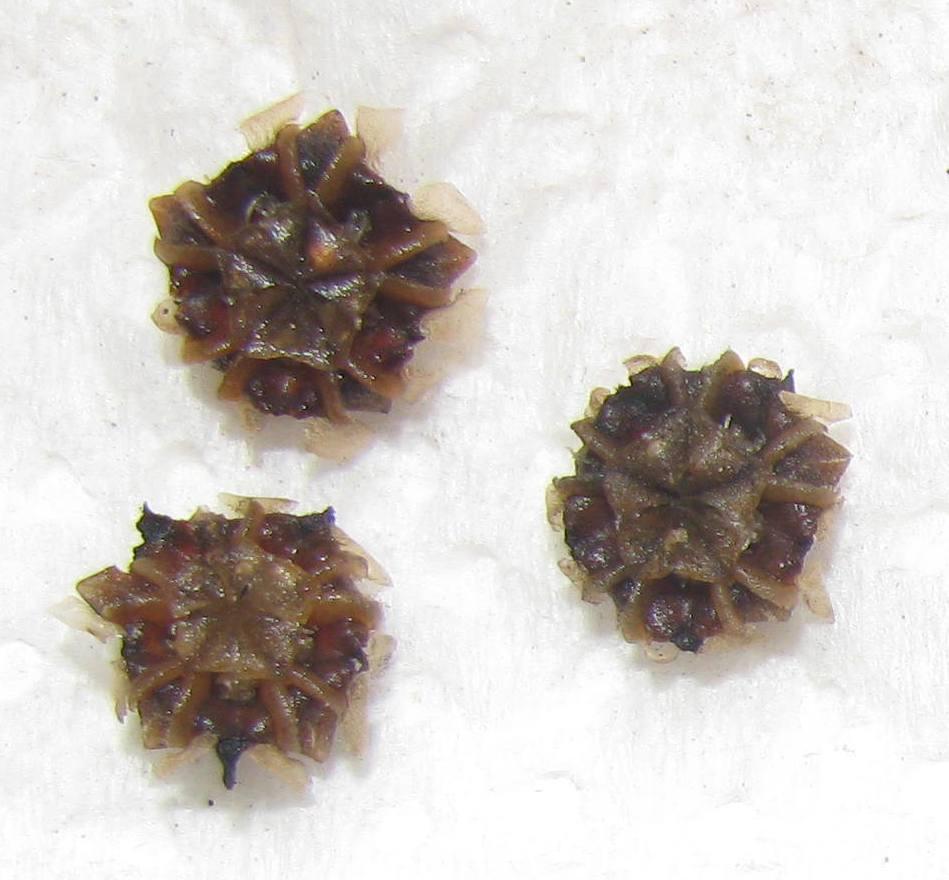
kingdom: Plantae
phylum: Tracheophyta
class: Magnoliopsida
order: Caryophyllales
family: Aizoaceae
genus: Ruschiella
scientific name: Ruschiella argentea
